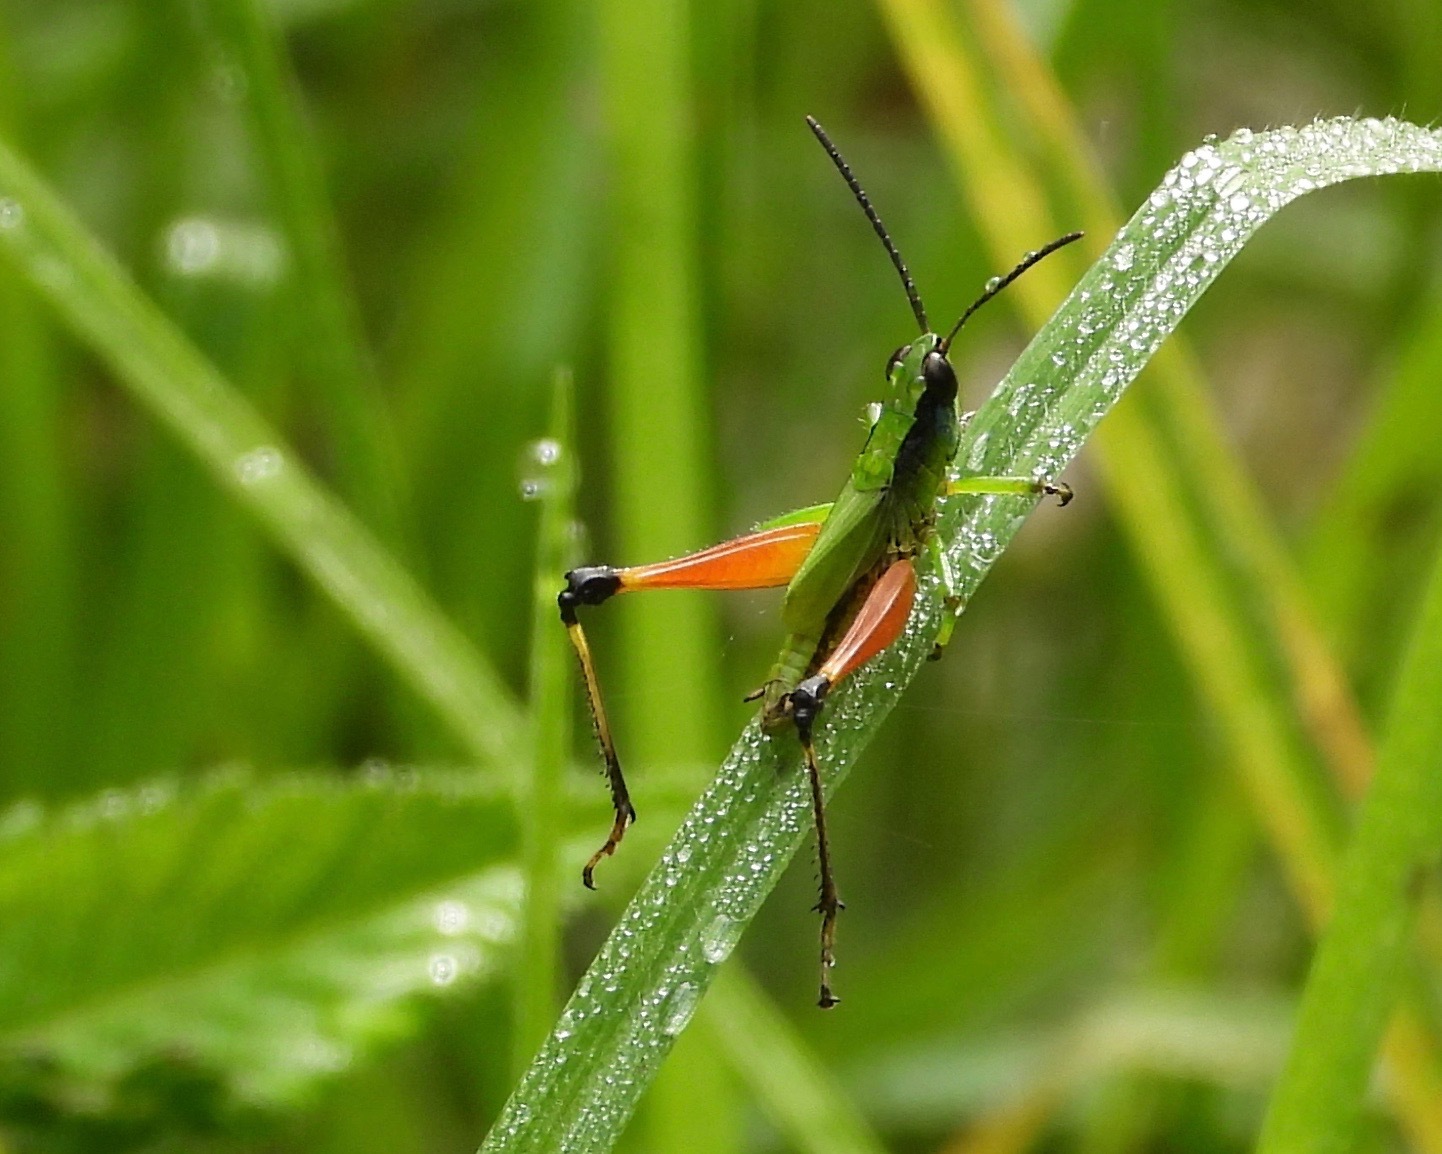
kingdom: Animalia
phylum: Arthropoda
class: Insecta
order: Orthoptera
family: Acrididae
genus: Phaneroturis
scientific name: Phaneroturis cupido
